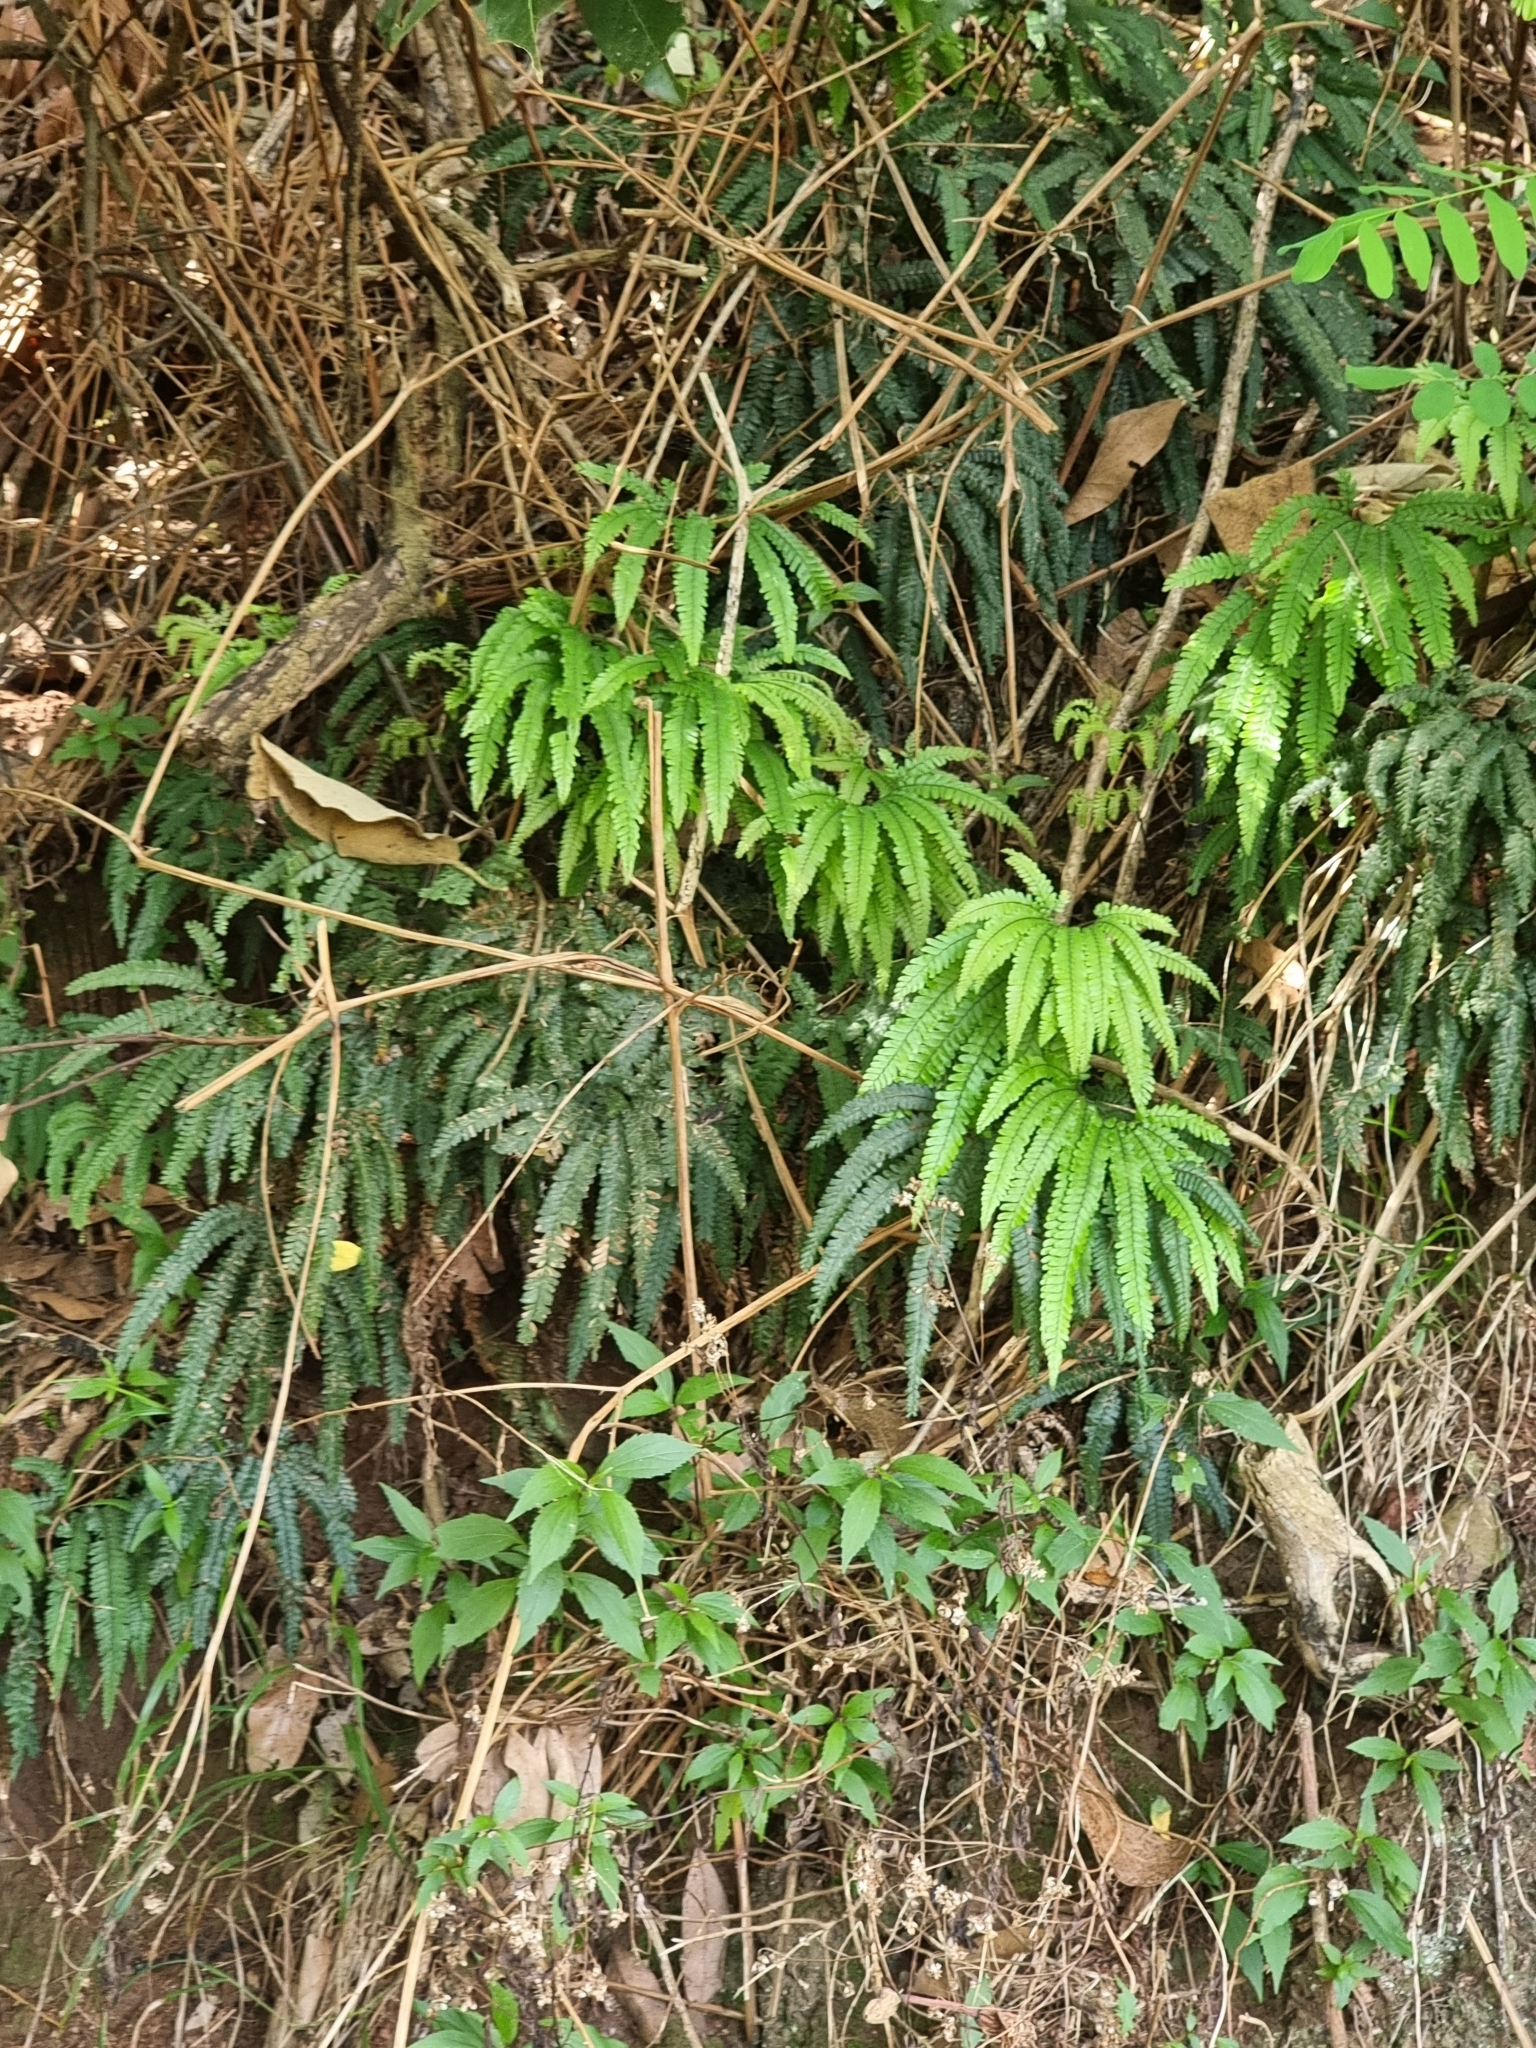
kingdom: Plantae
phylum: Tracheophyta
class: Polypodiopsida
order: Polypodiales
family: Pteridaceae
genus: Adiantum
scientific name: Adiantum hispidulum
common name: Rough maidenhair
